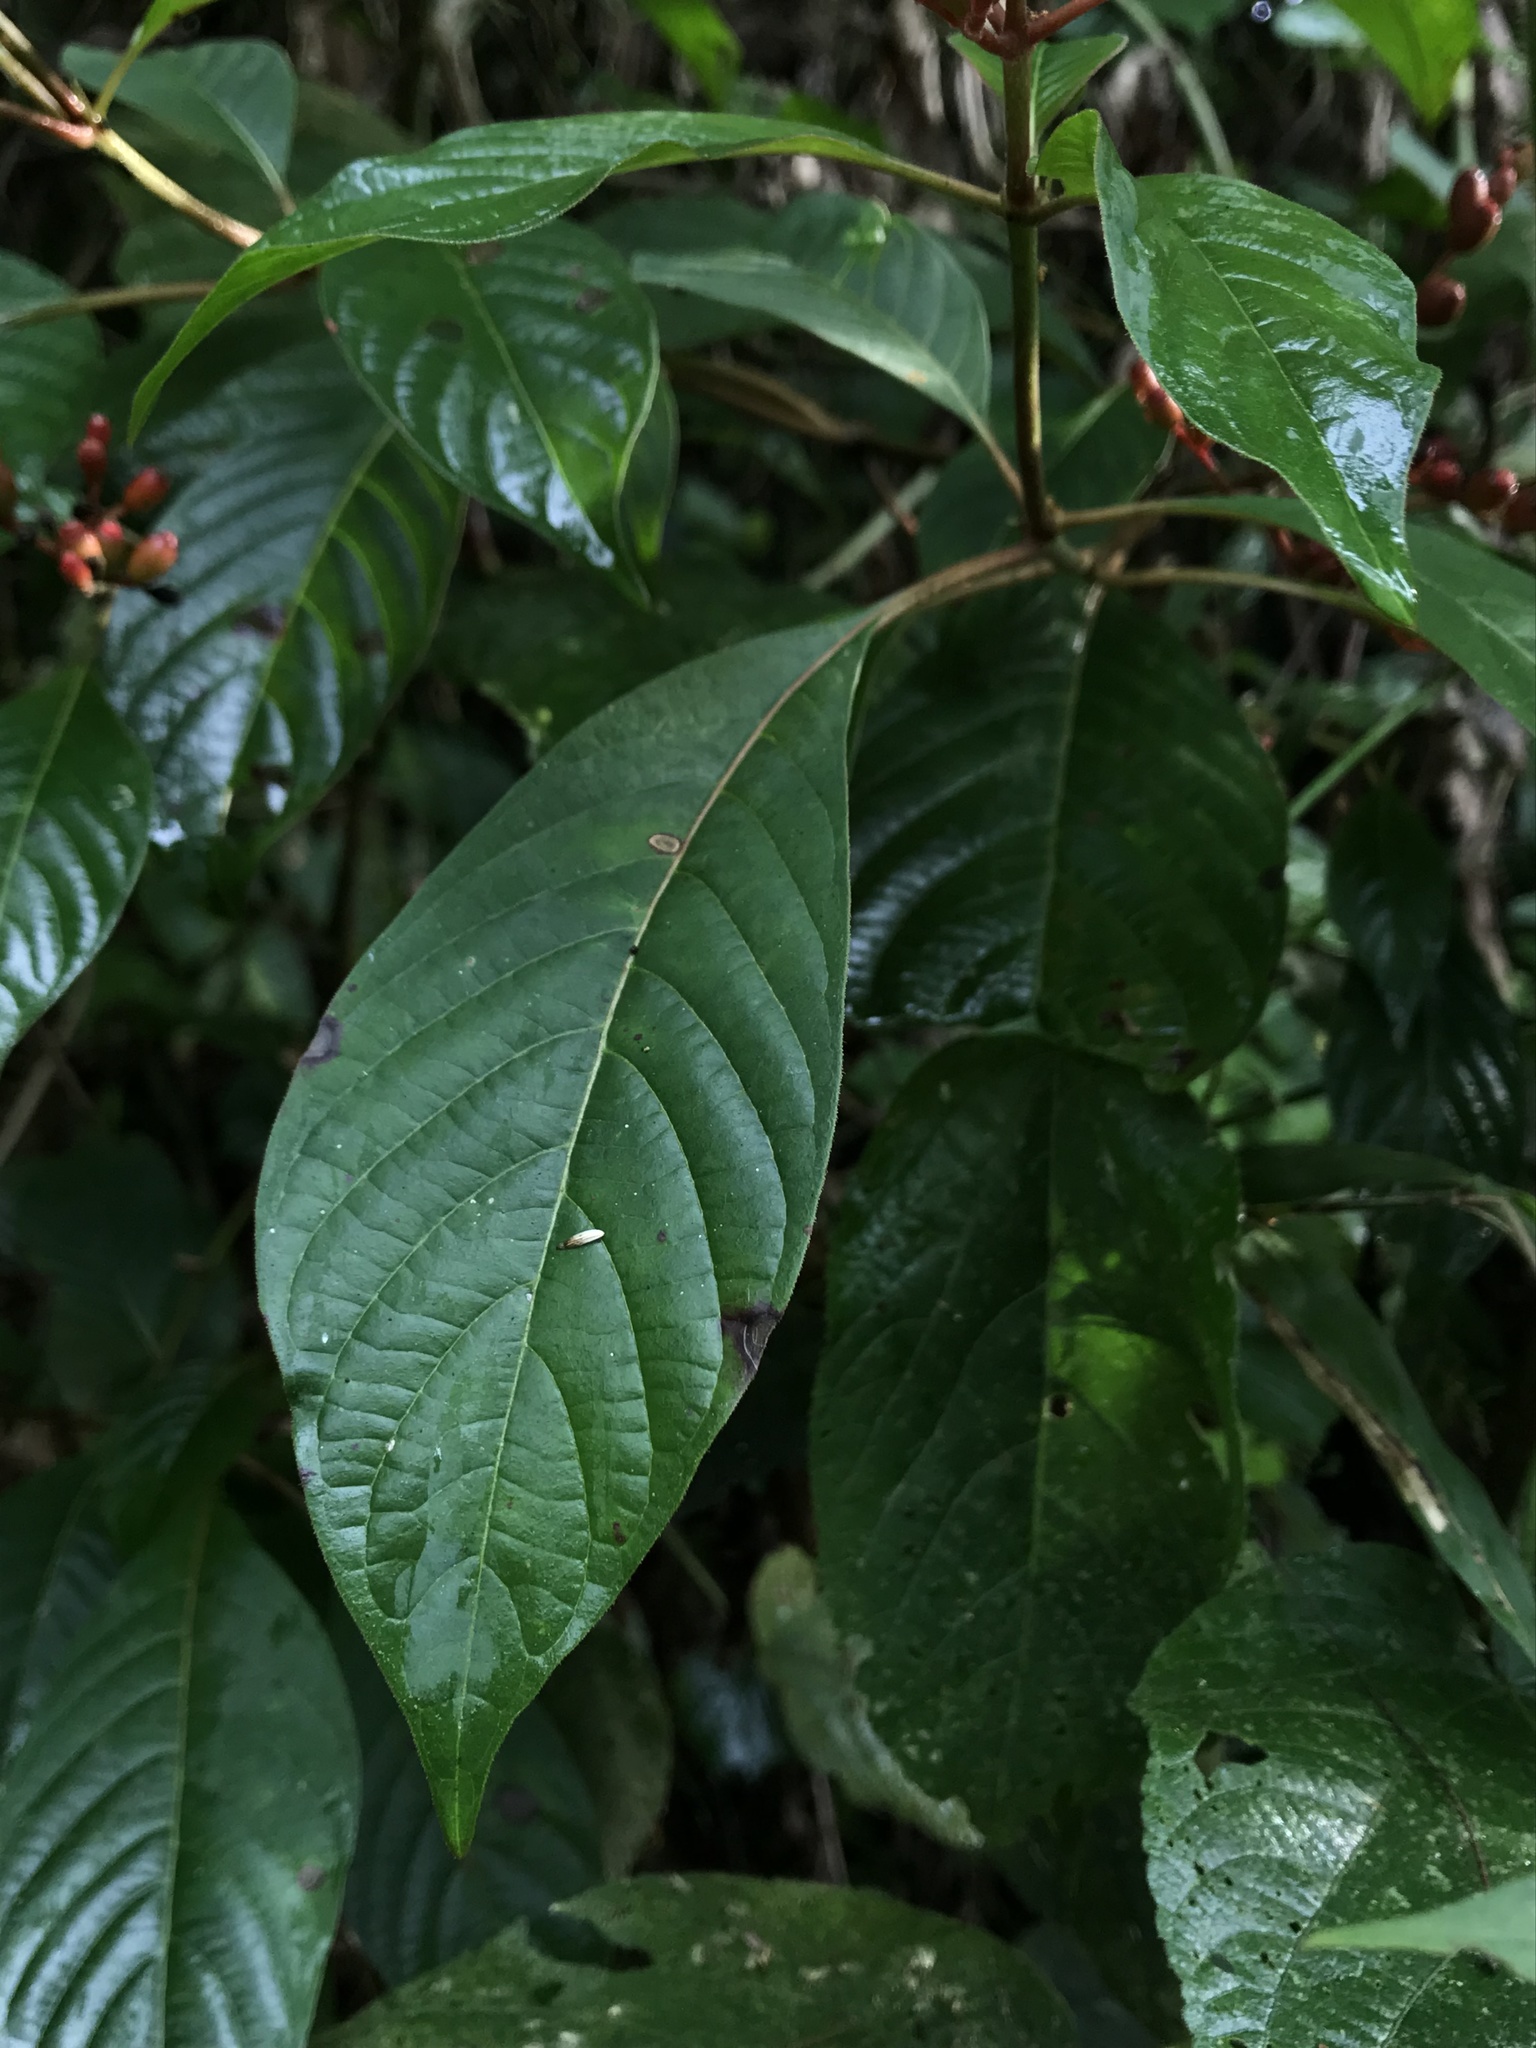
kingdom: Plantae
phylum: Tracheophyta
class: Magnoliopsida
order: Gentianales
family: Rubiaceae
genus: Hamelia
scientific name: Hamelia patens
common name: Redhead
